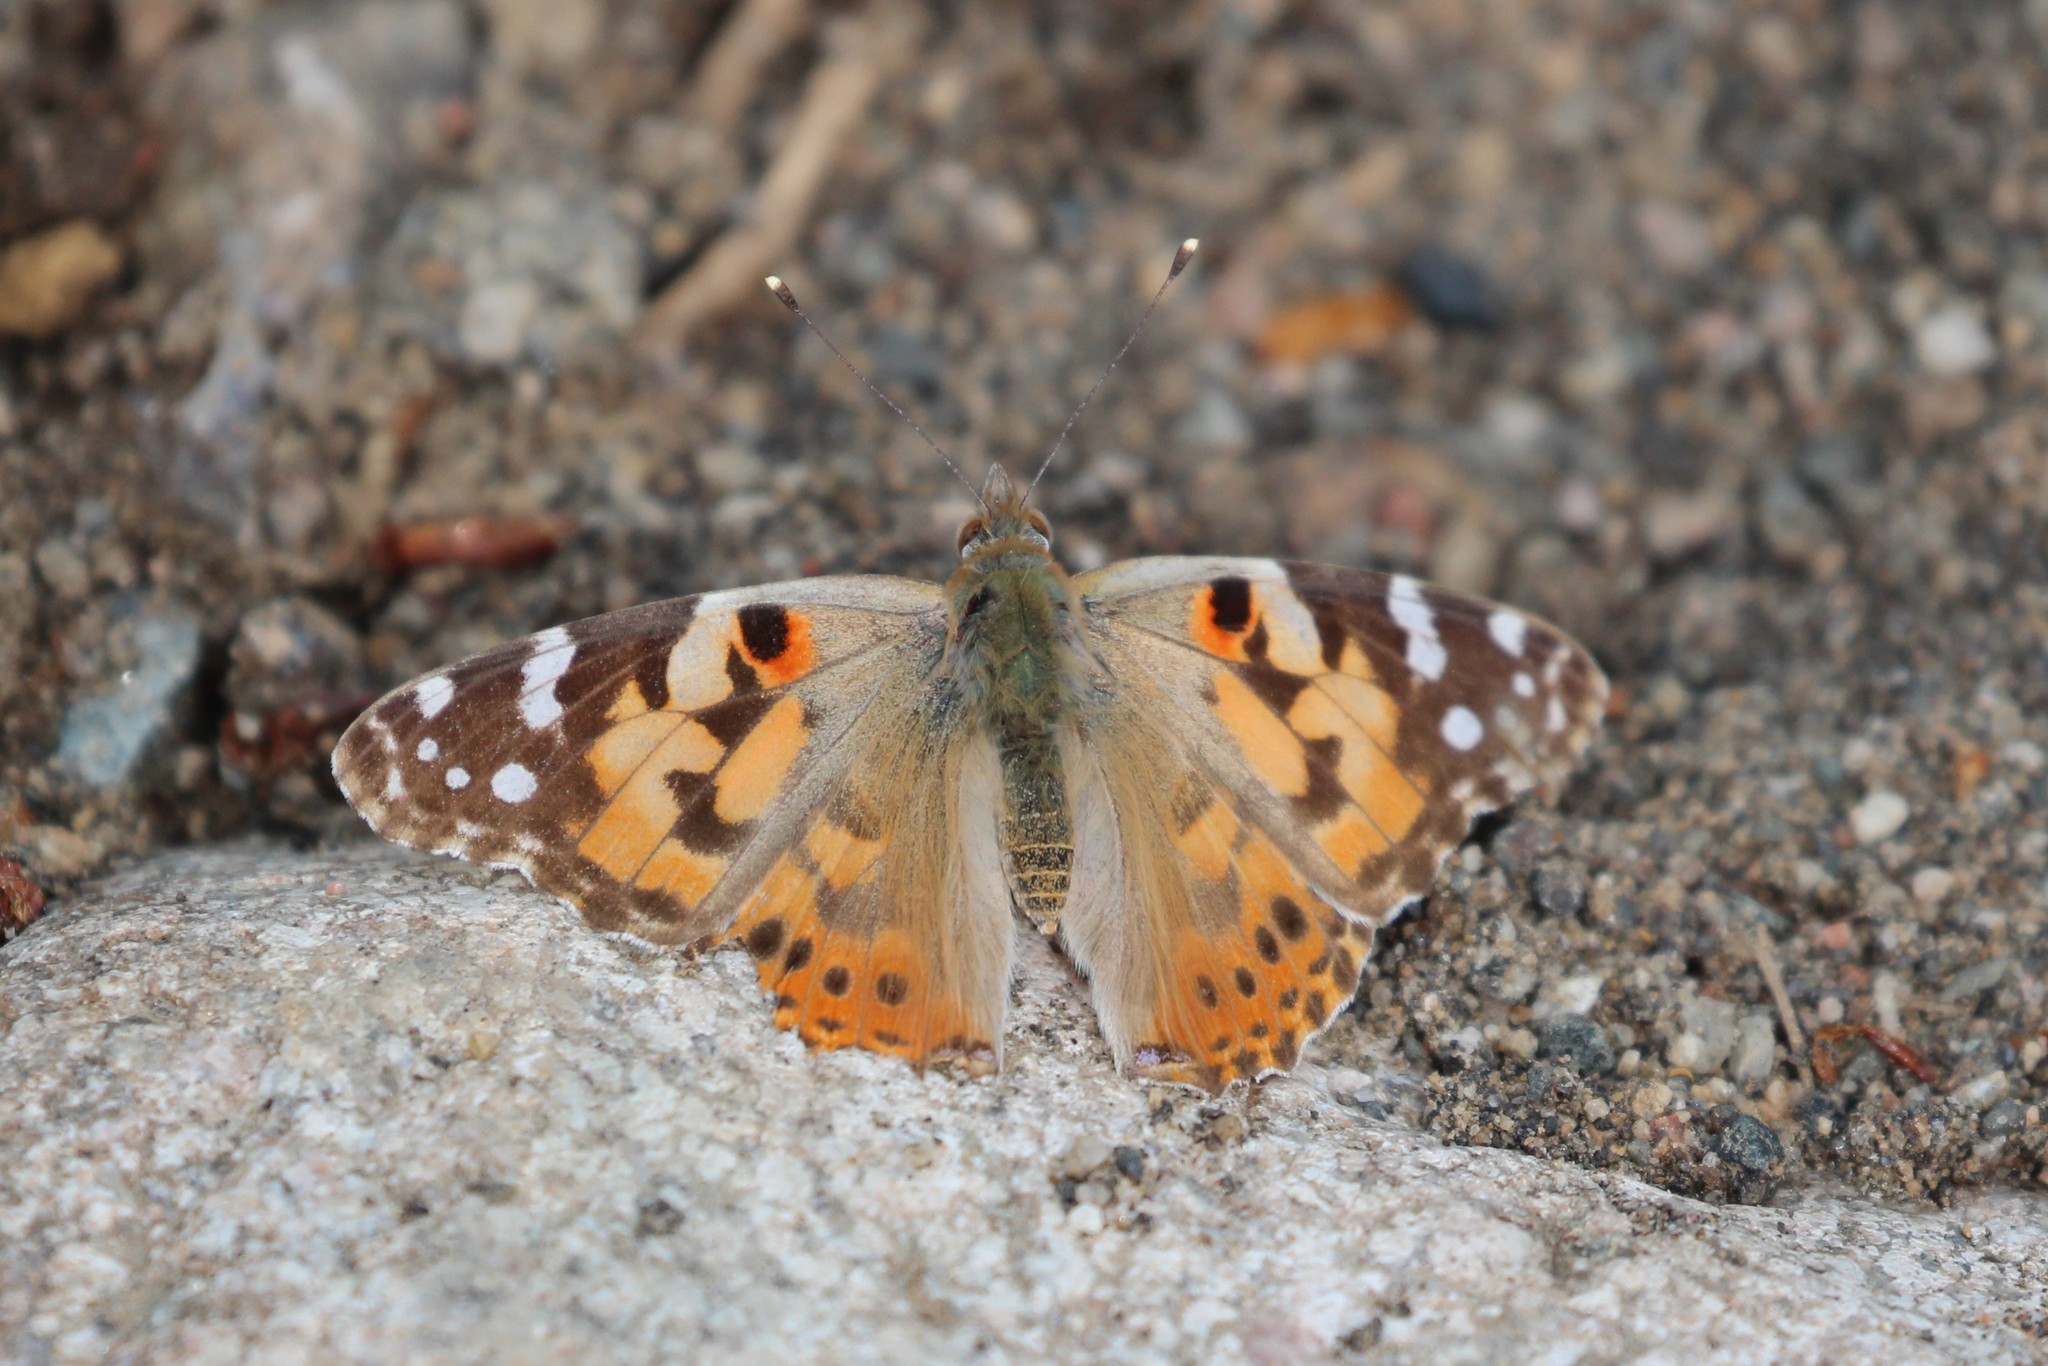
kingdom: Animalia
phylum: Arthropoda
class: Insecta
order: Lepidoptera
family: Nymphalidae
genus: Vanessa
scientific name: Vanessa cardui
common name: Painted lady
